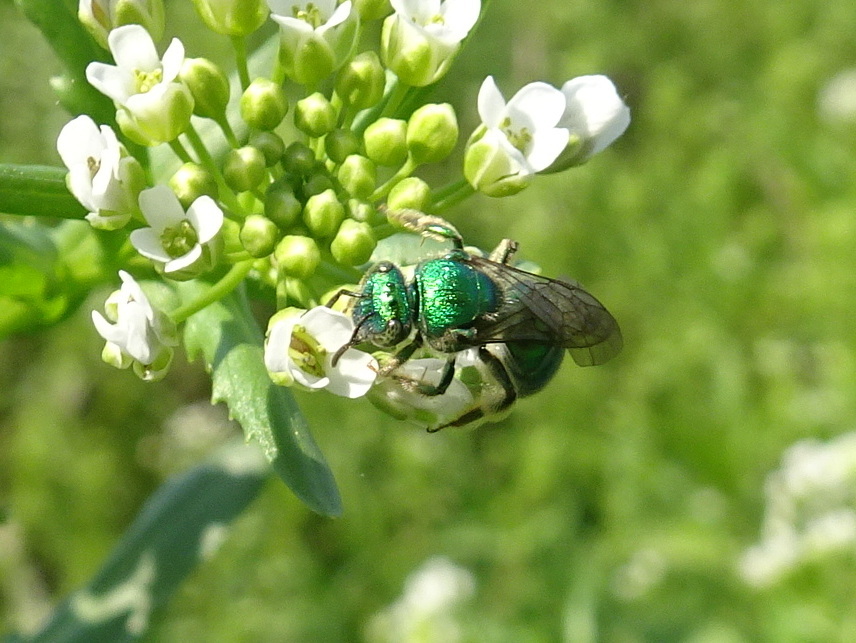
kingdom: Animalia
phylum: Arthropoda
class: Insecta
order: Hymenoptera
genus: Paraugochloropsis
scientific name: Paraugochloropsis
